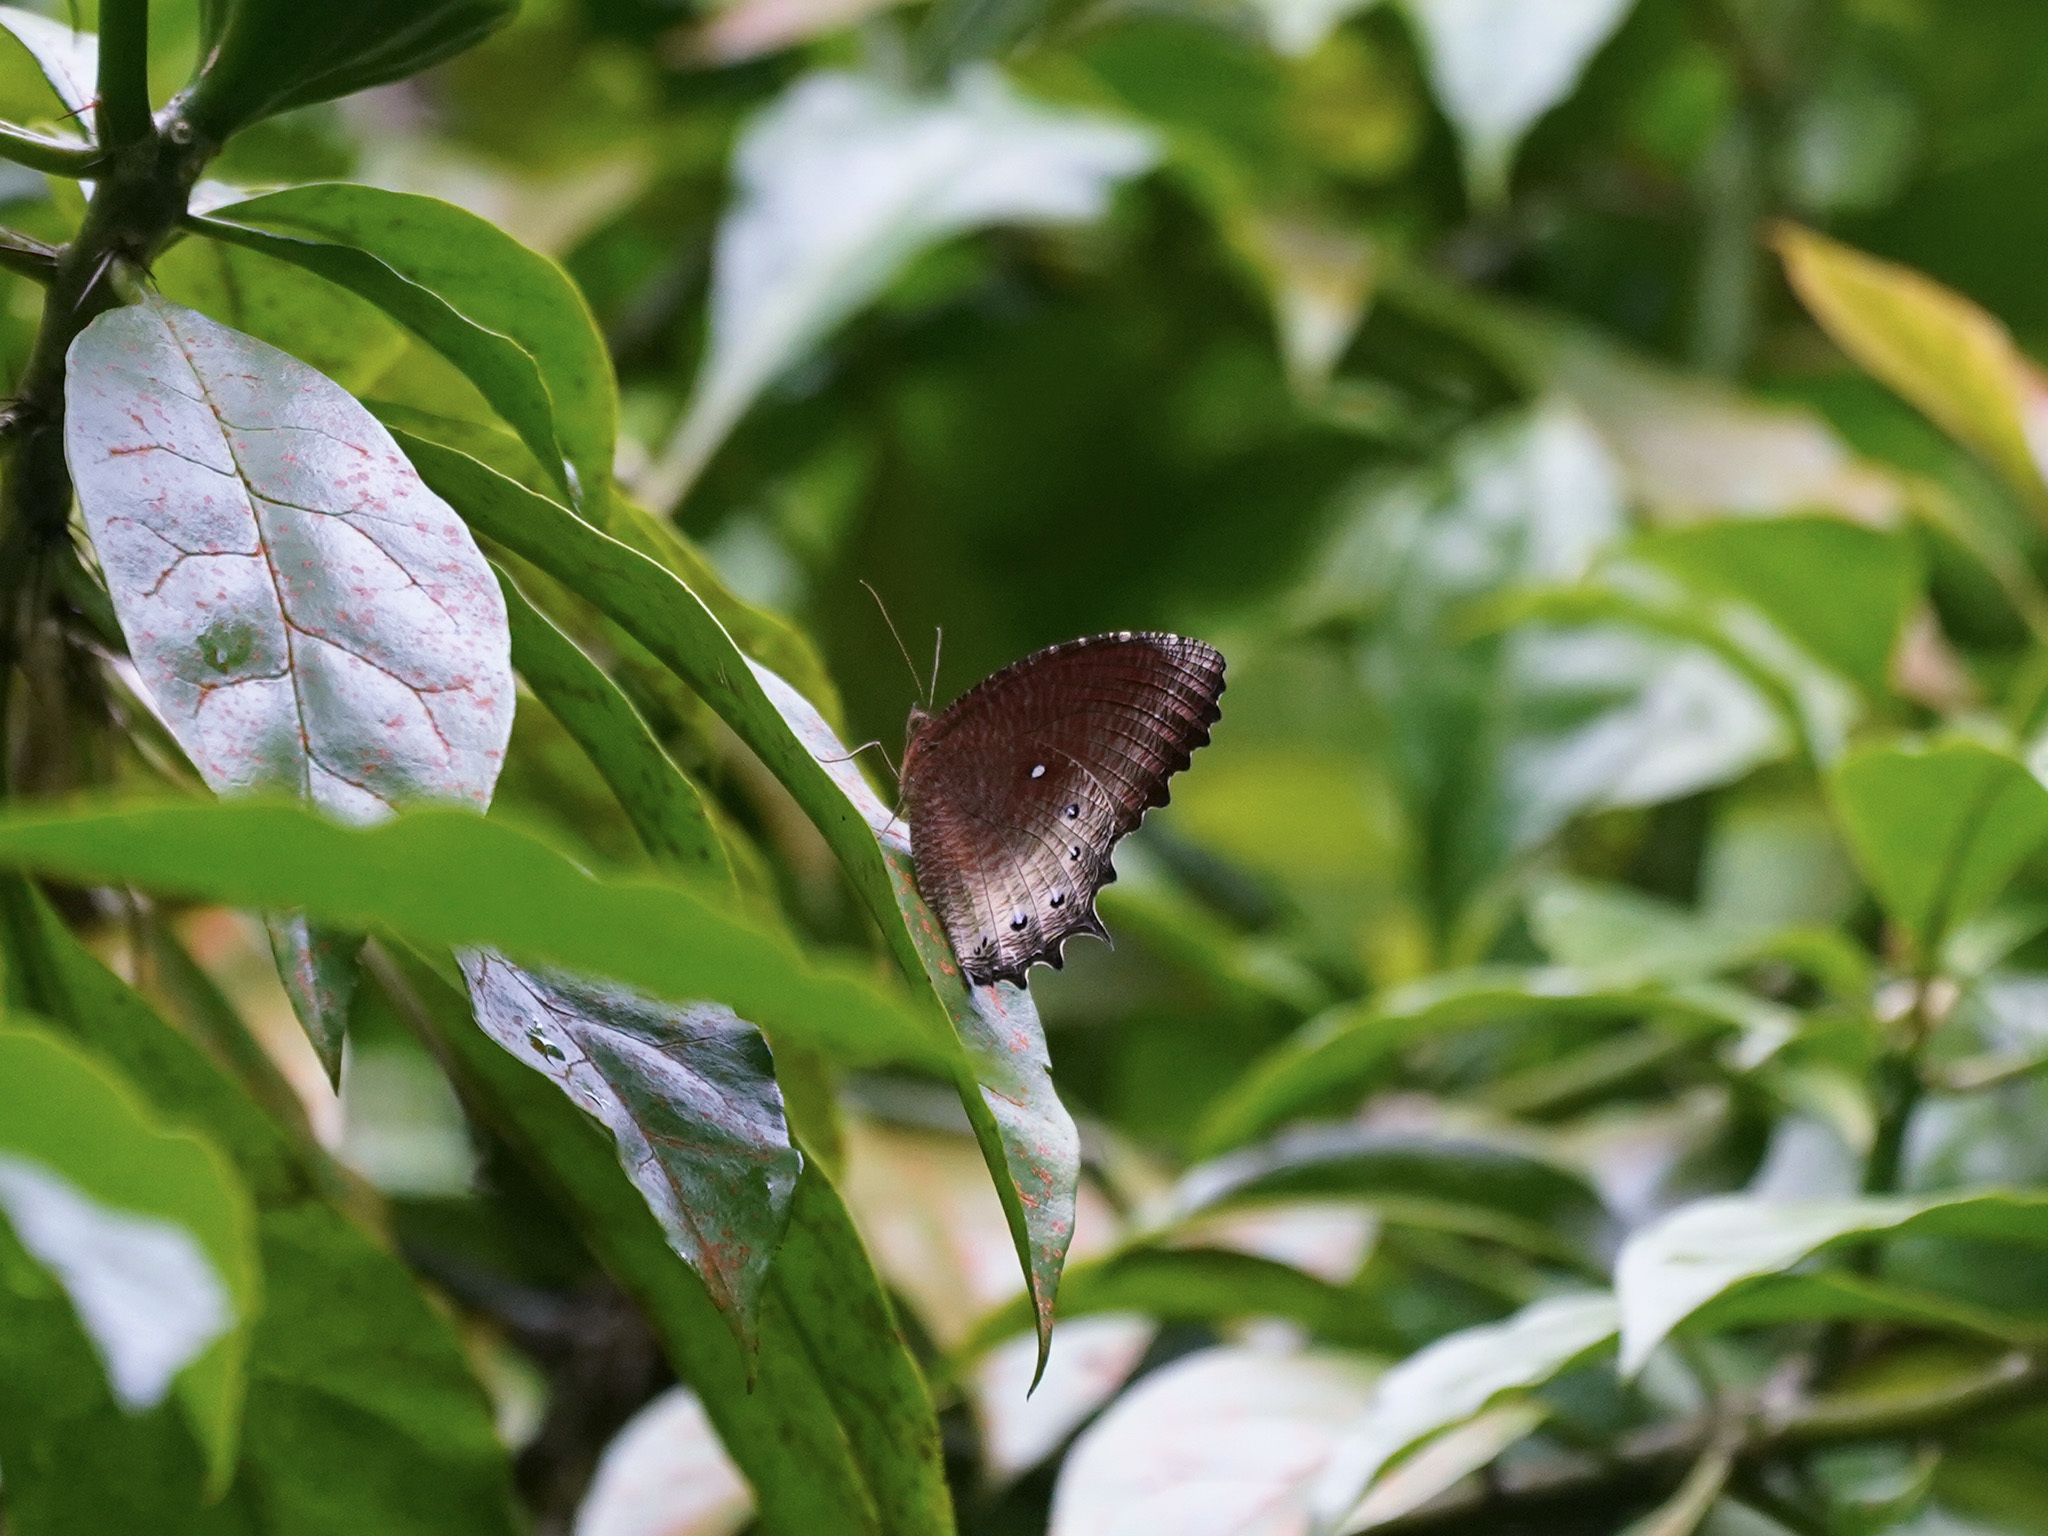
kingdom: Animalia
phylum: Arthropoda
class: Insecta
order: Lepidoptera
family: Nymphalidae
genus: Elymnias
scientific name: Elymnias panthera
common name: Tawny palmfly
